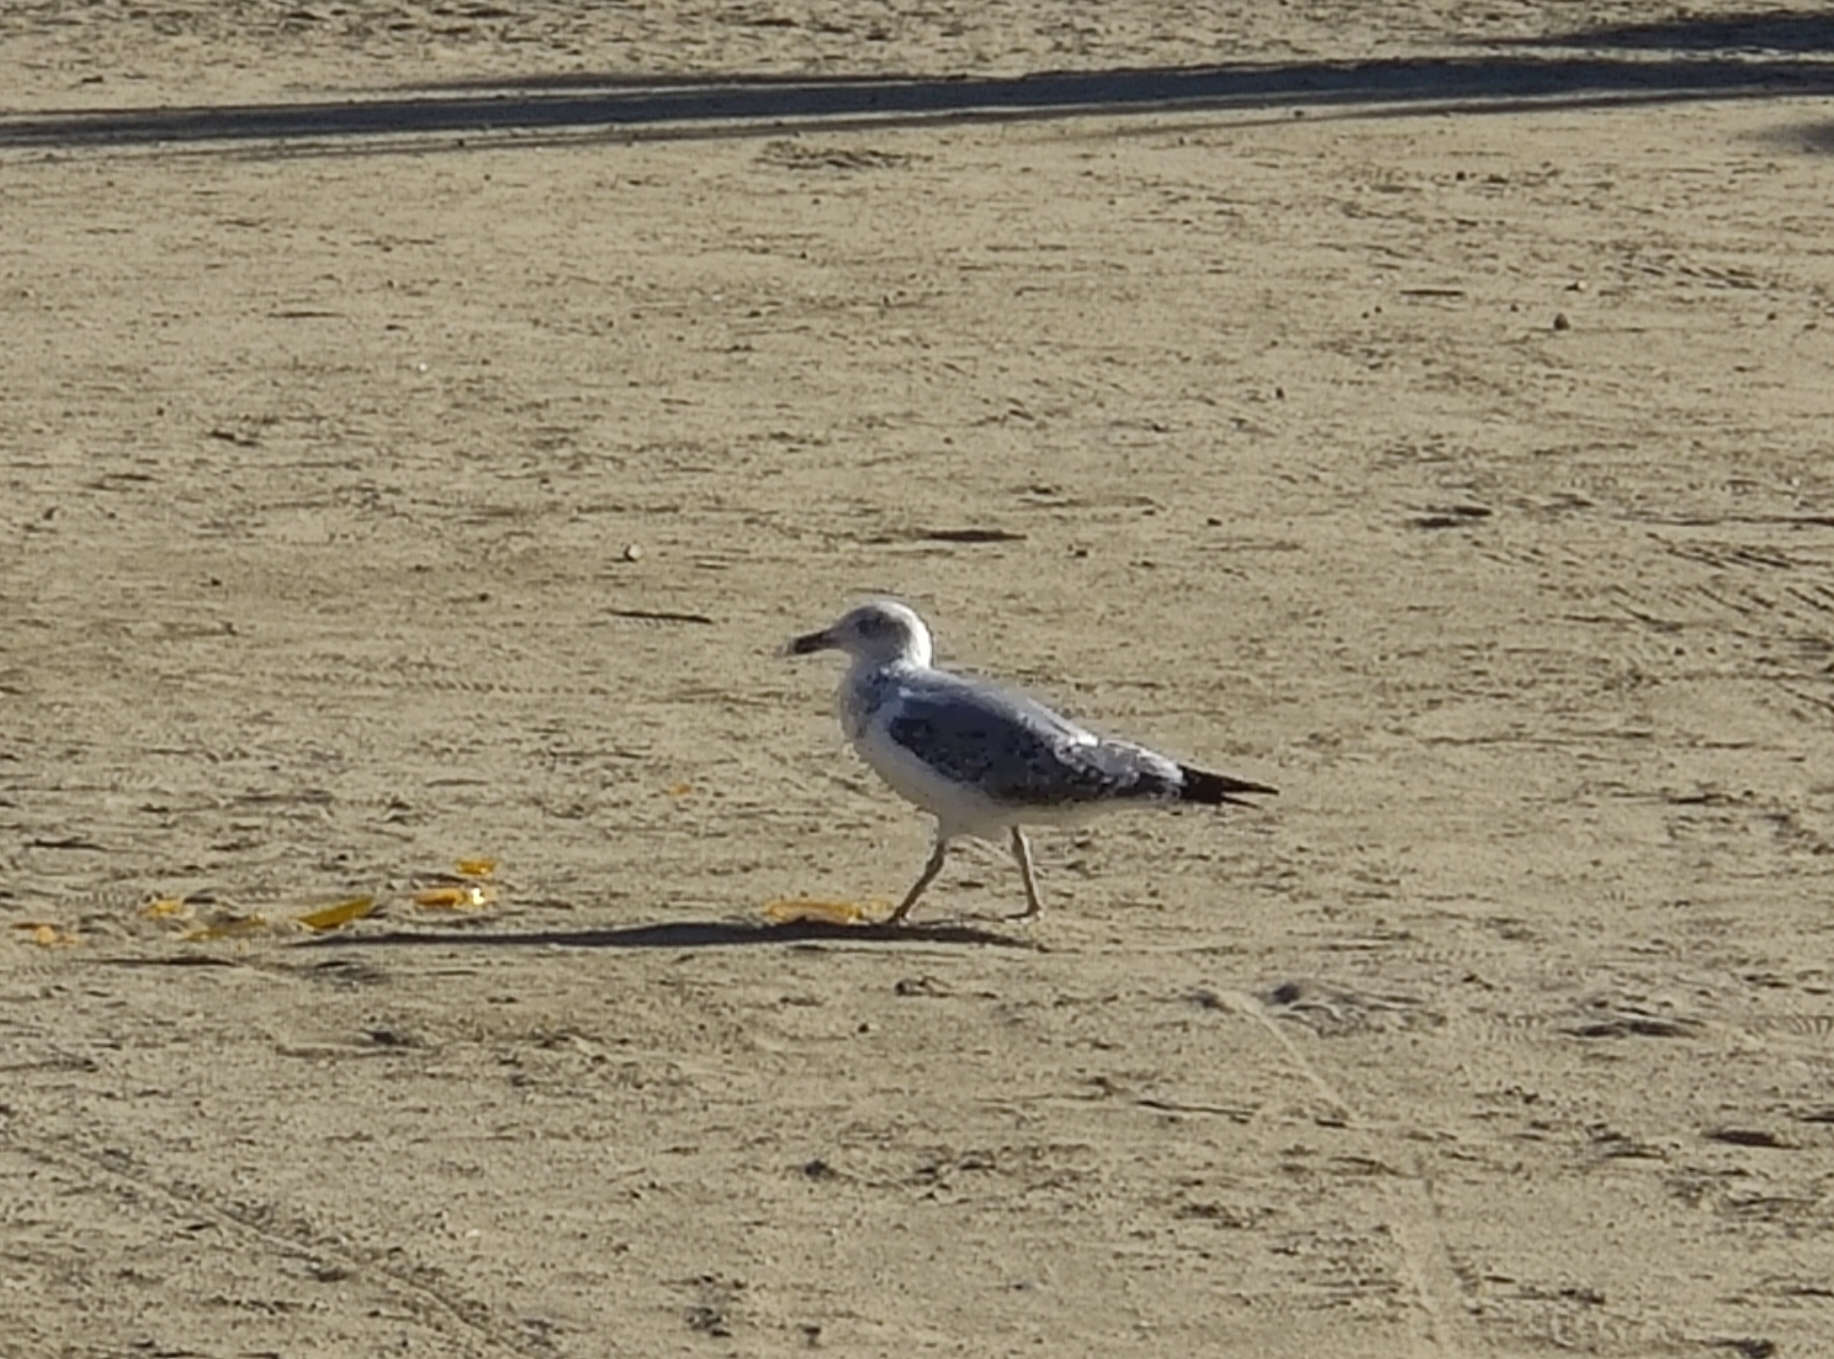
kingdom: Animalia
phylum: Chordata
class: Aves
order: Charadriiformes
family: Laridae
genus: Larus
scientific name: Larus michahellis
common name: Yellow-legged gull
